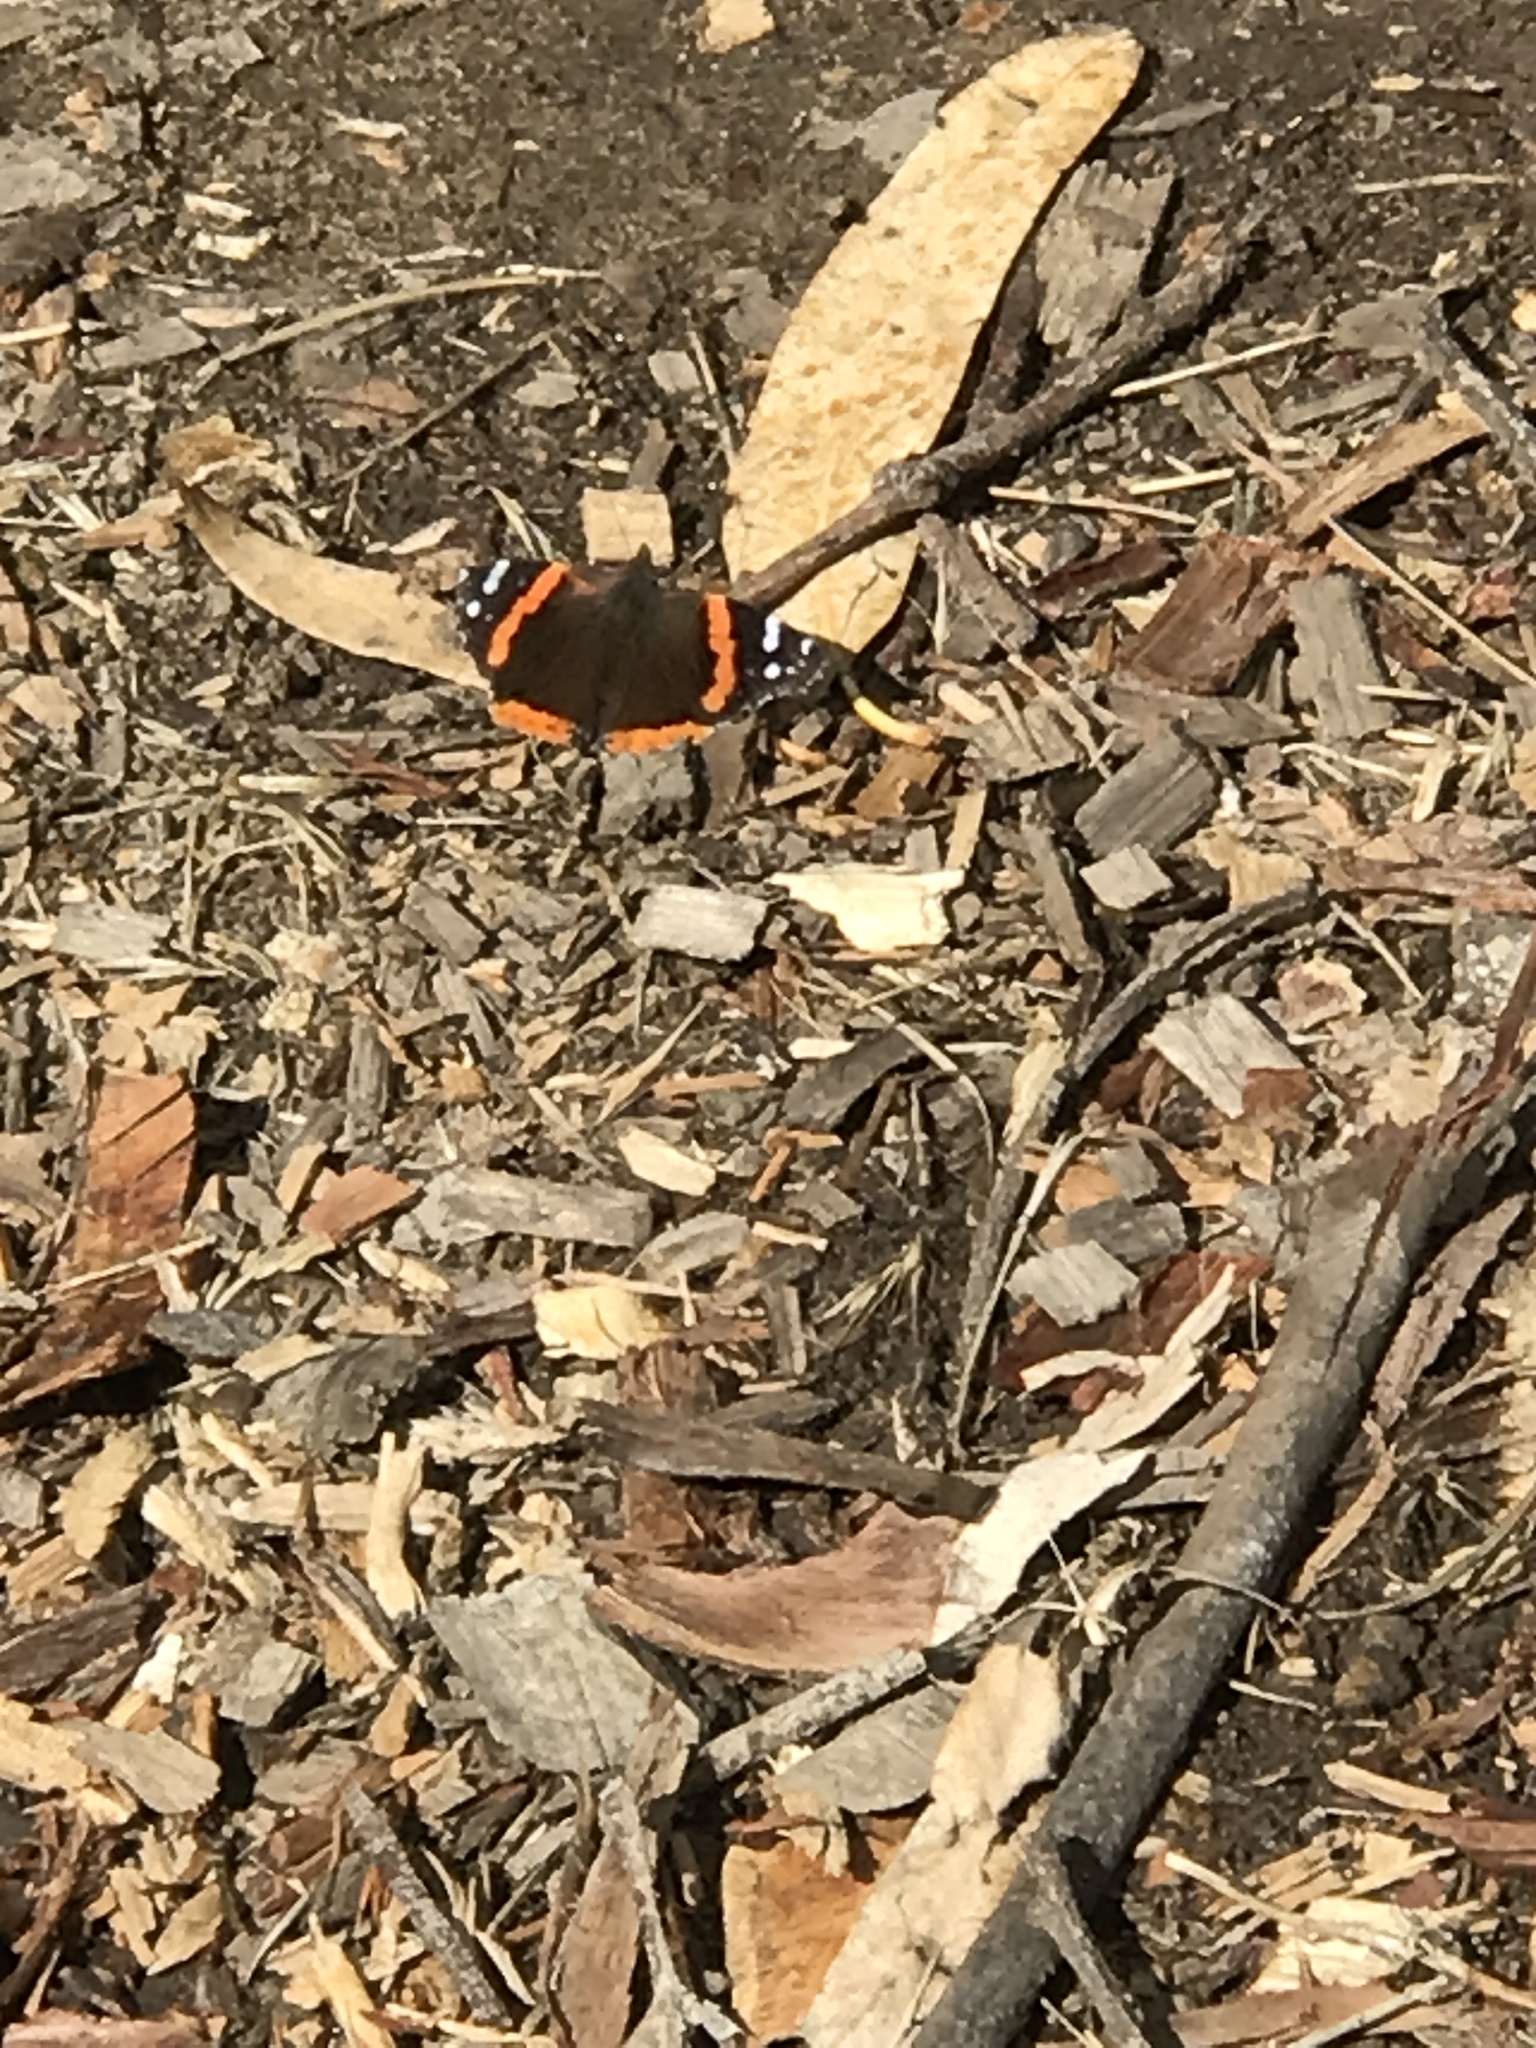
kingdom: Animalia
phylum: Arthropoda
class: Insecta
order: Lepidoptera
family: Nymphalidae
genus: Vanessa
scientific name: Vanessa atalanta
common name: Red admiral
